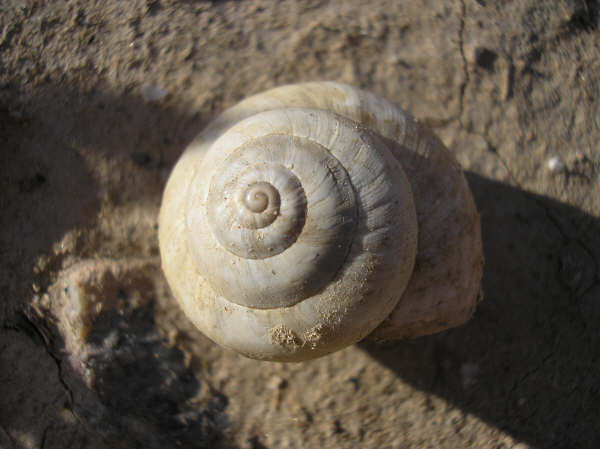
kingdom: Animalia
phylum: Mollusca
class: Gastropoda
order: Stylommatophora
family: Helicidae
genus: Theba
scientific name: Theba pisana
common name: White snail
